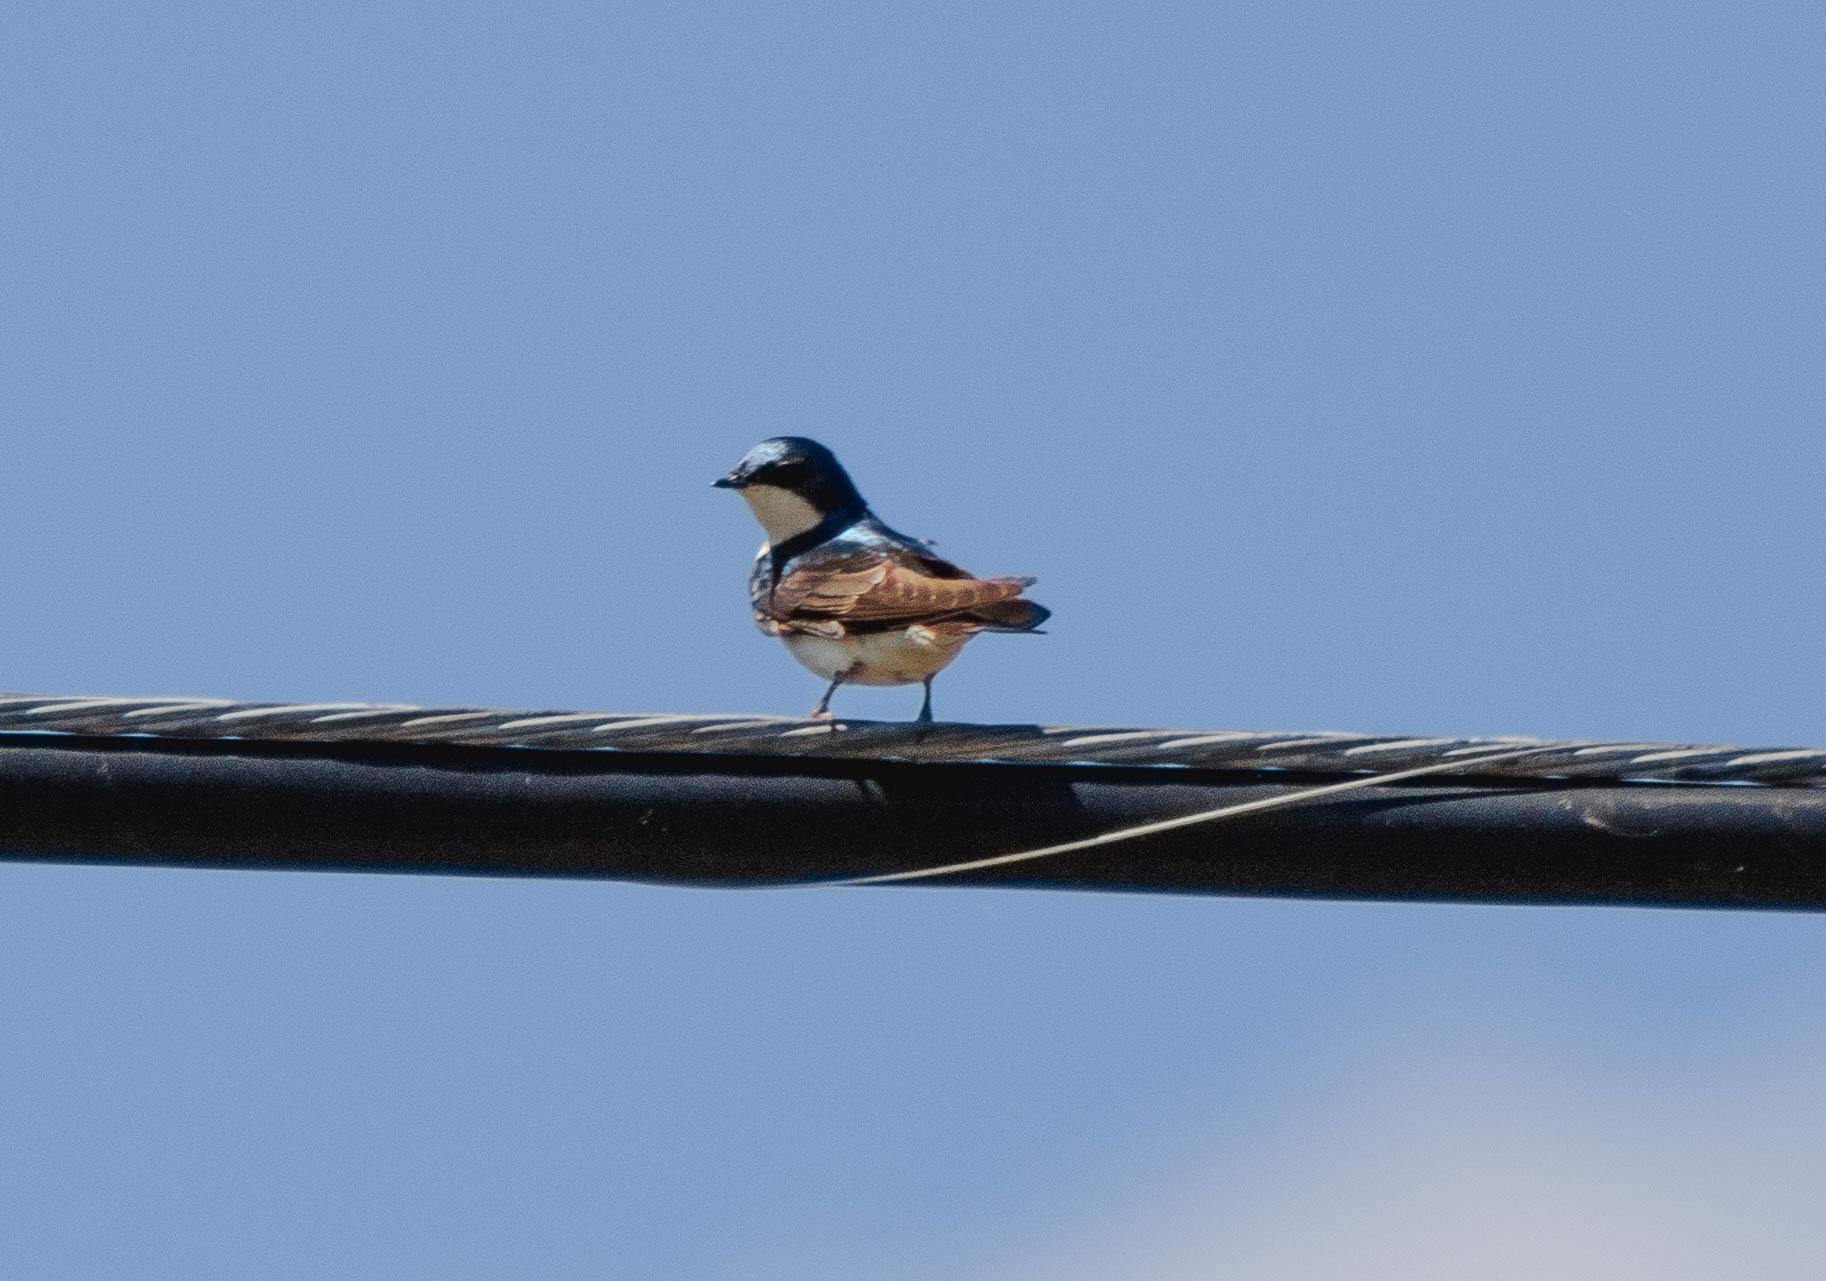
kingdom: Animalia
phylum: Chordata
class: Aves
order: Passeriformes
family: Hirundinidae
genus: Tachycineta
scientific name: Tachycineta bicolor
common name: Tree swallow
